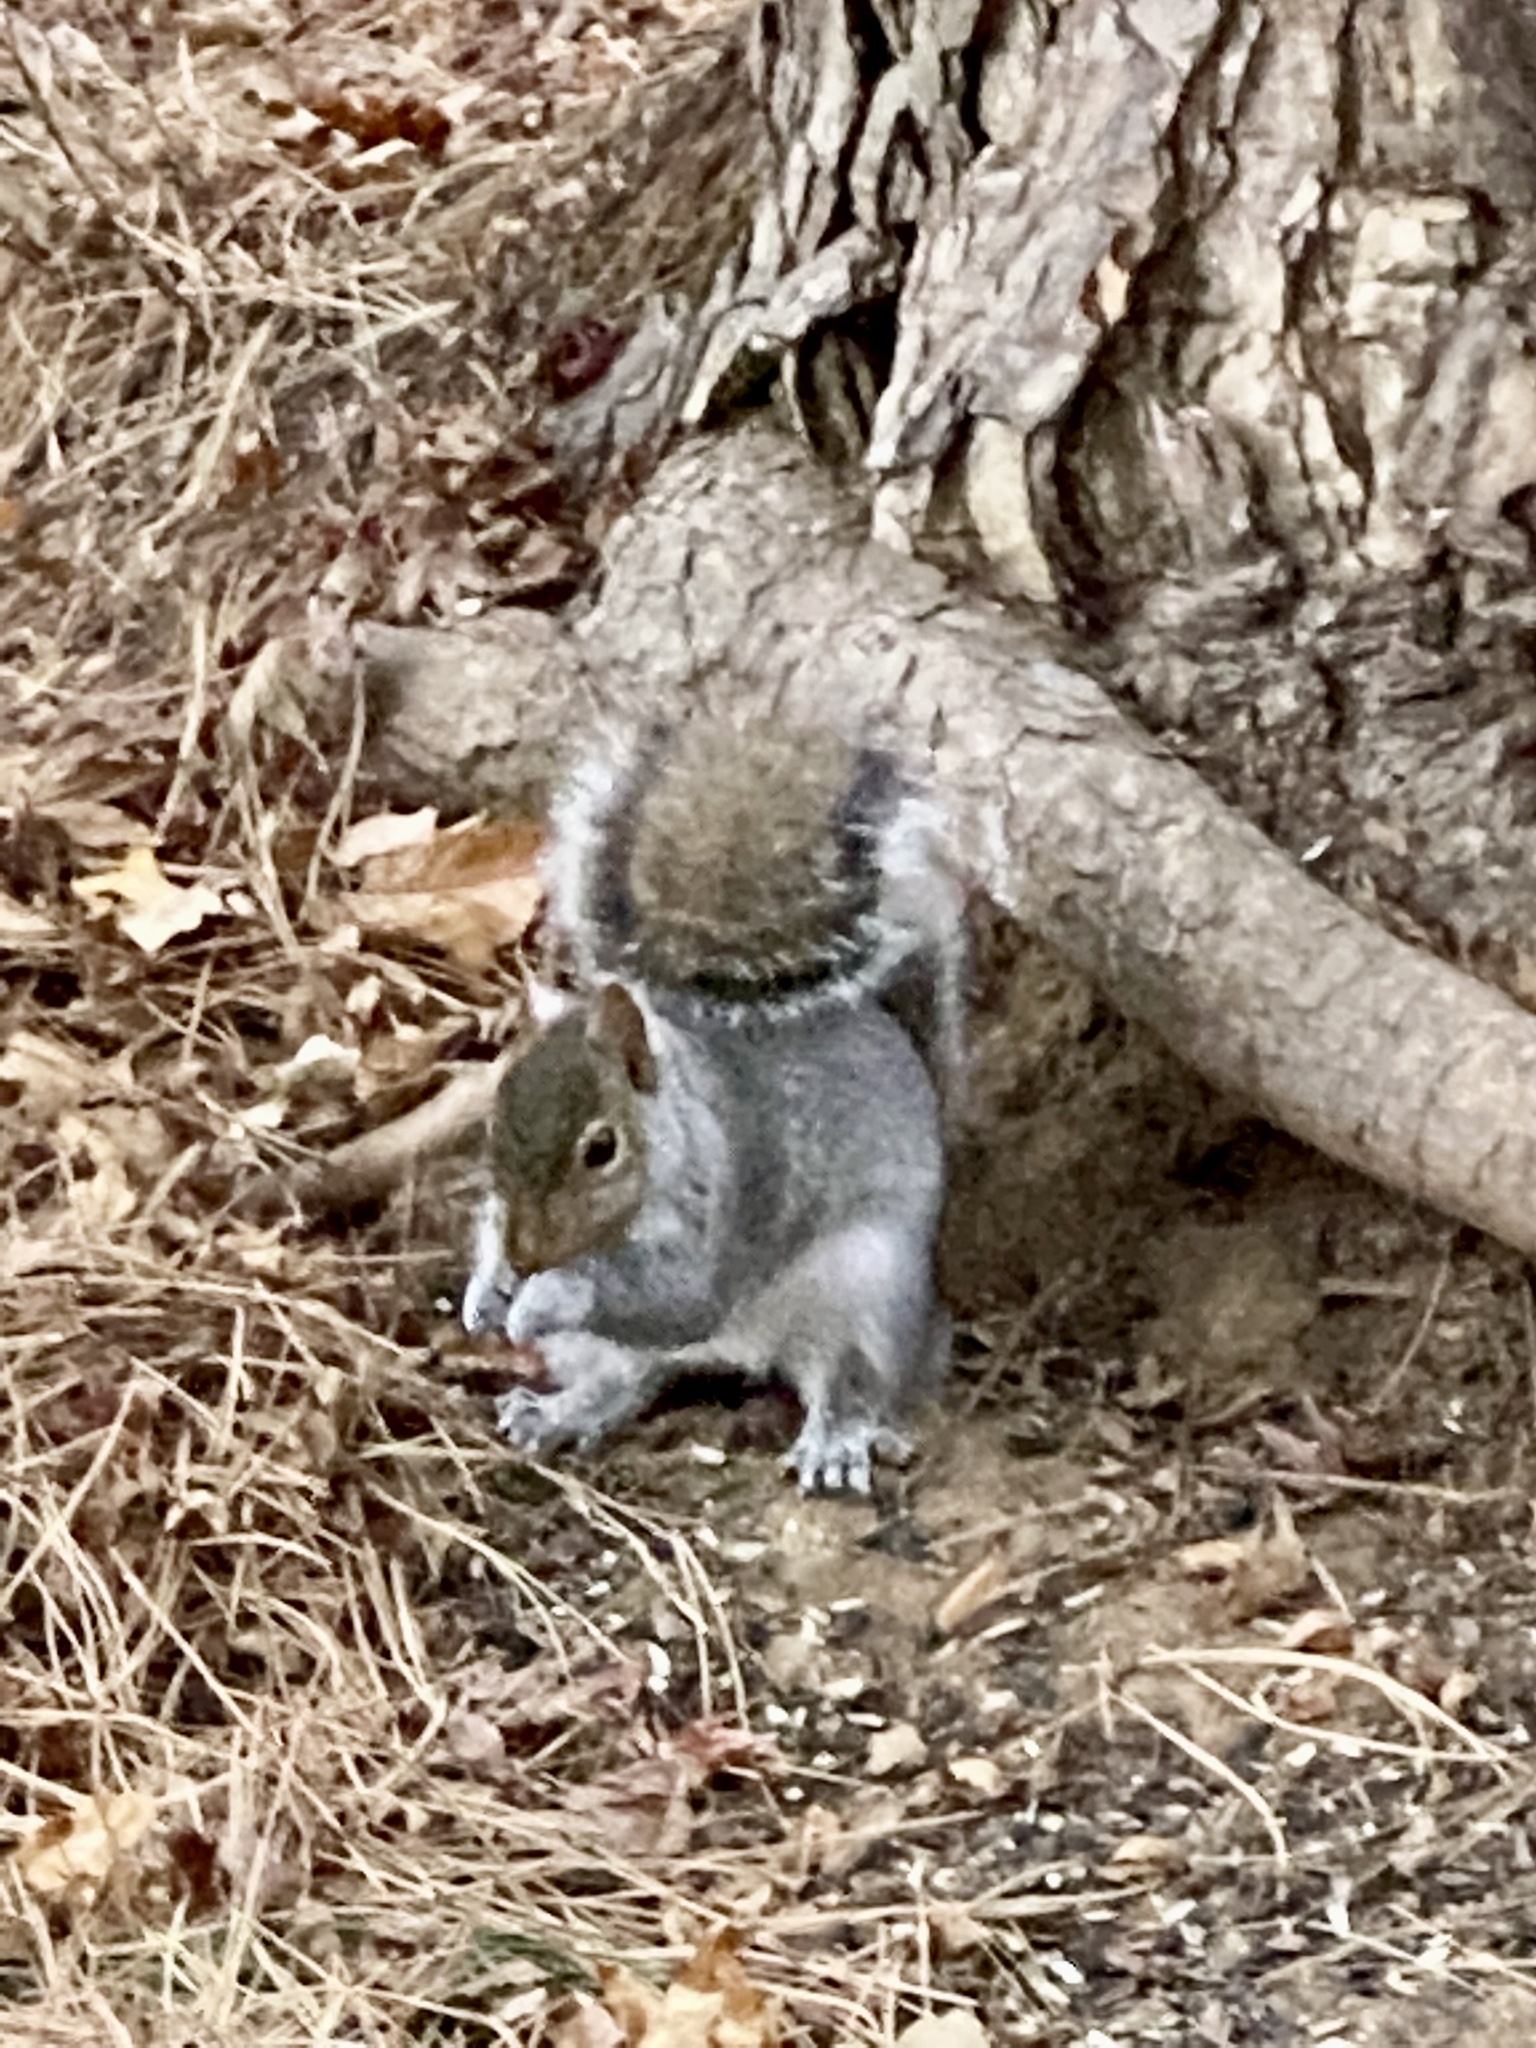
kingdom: Animalia
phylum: Chordata
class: Mammalia
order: Rodentia
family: Sciuridae
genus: Sciurus
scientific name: Sciurus carolinensis
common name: Eastern gray squirrel
